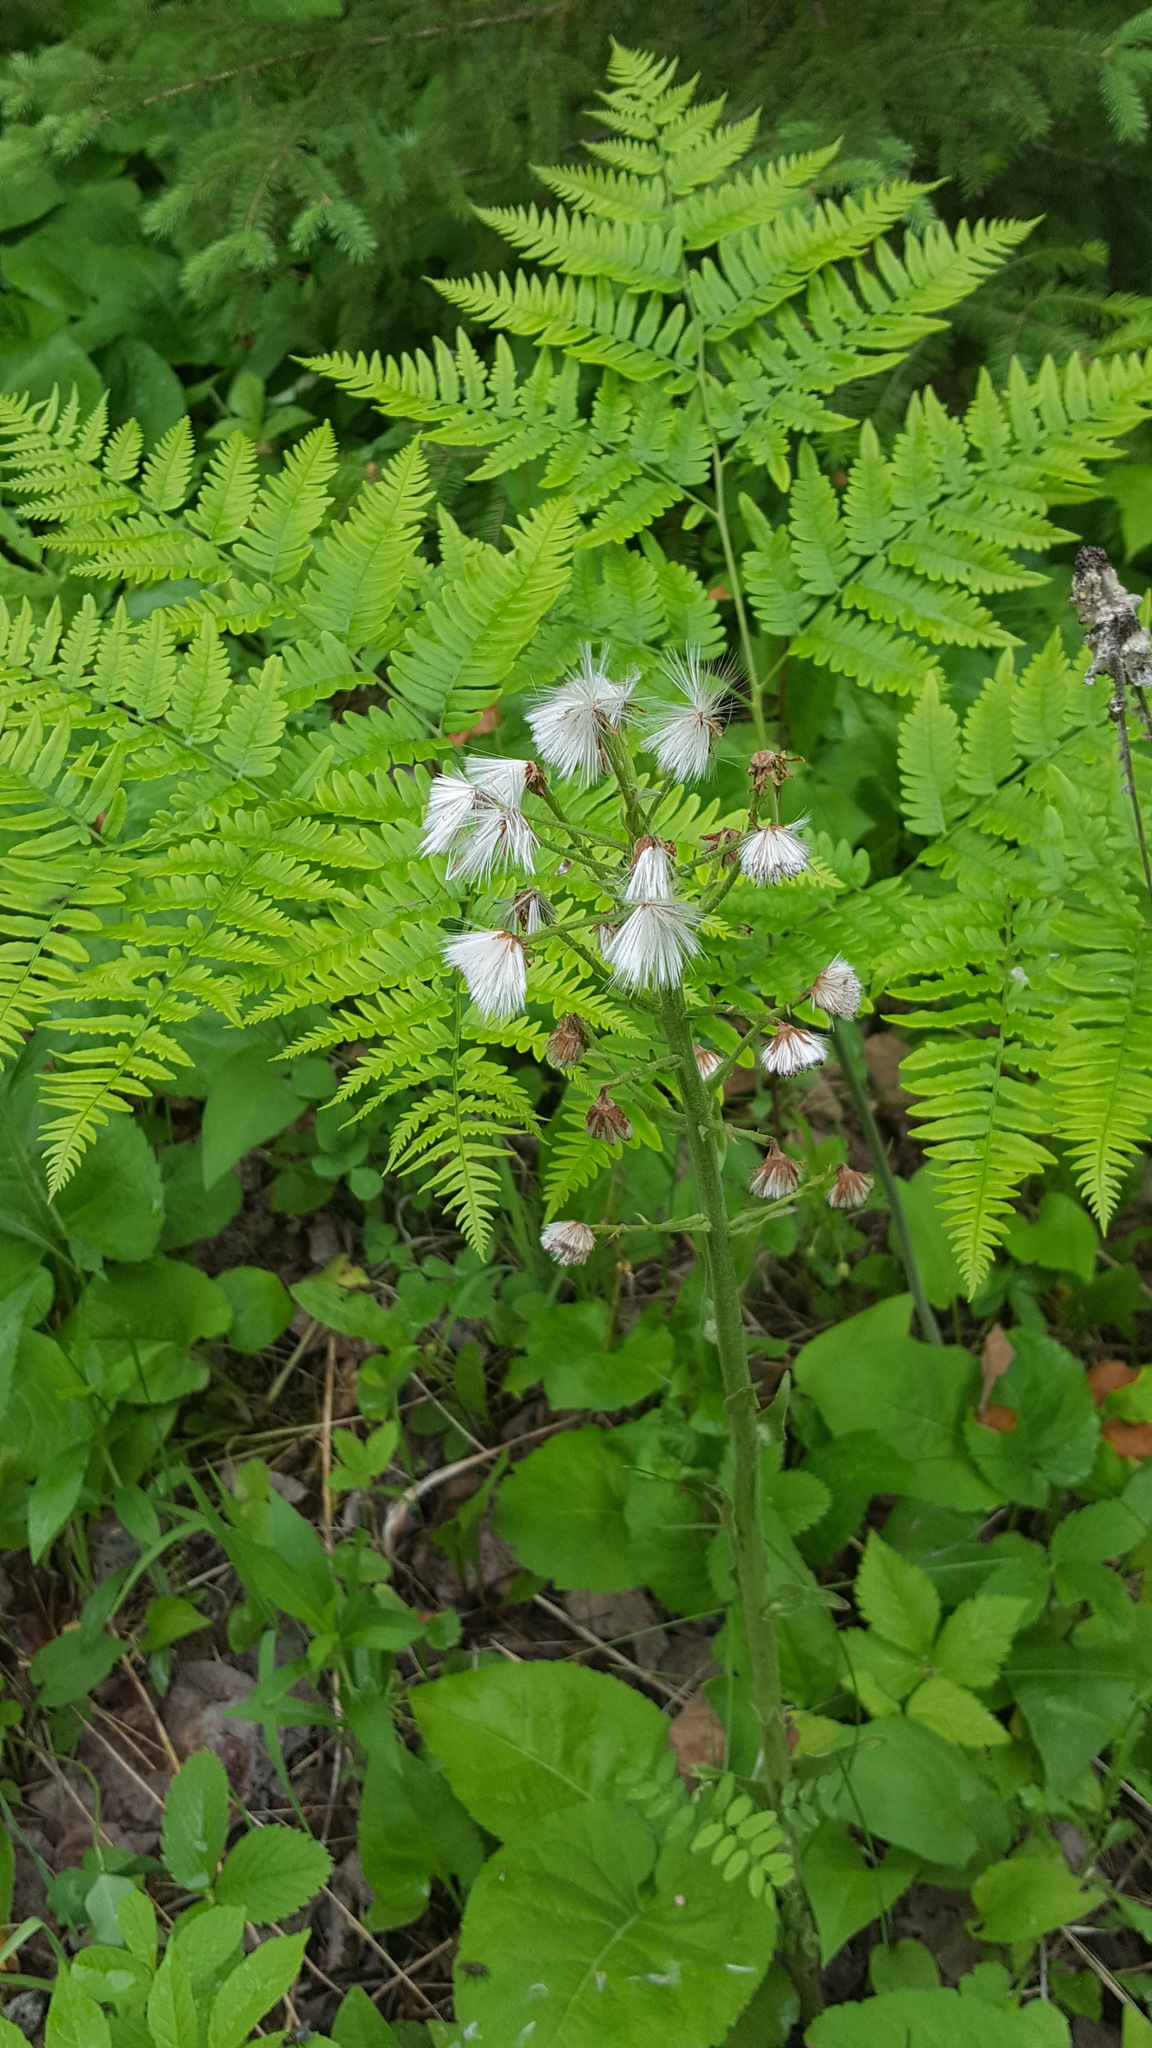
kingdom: Plantae
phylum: Tracheophyta
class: Magnoliopsida
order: Asterales
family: Asteraceae
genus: Petasites
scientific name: Petasites frigidus
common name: Arctic butterbur
